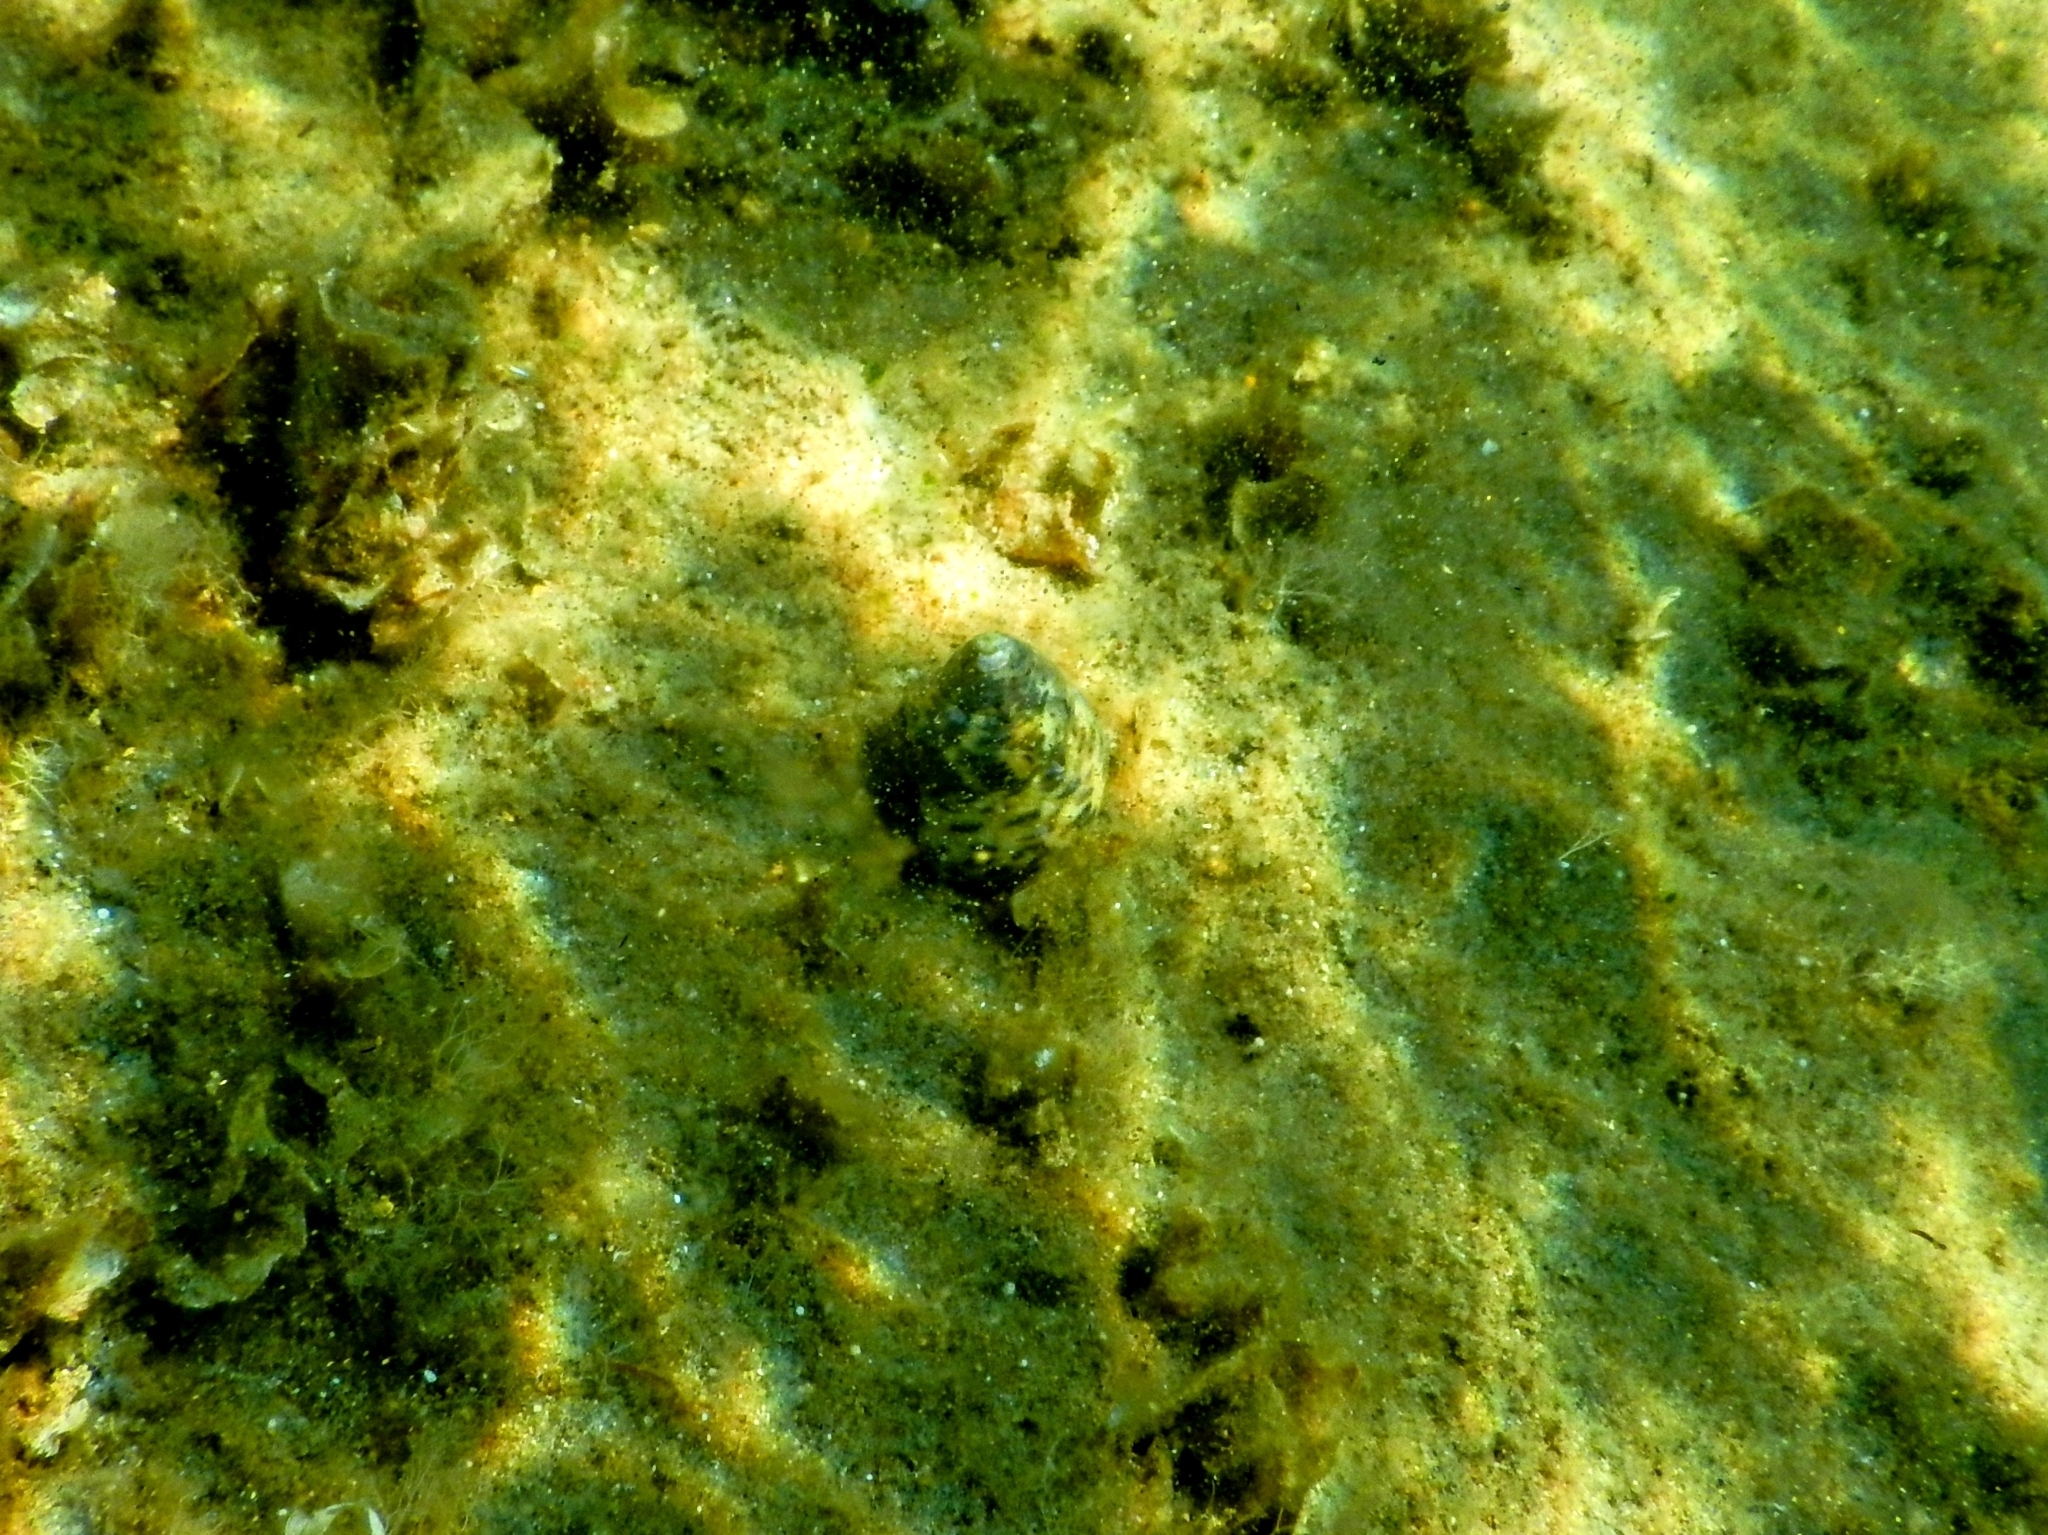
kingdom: Animalia
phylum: Arthropoda
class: Malacostraca
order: Decapoda
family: Diogenidae
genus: Clibanarius
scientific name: Clibanarius erythropus
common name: Hermit crab
